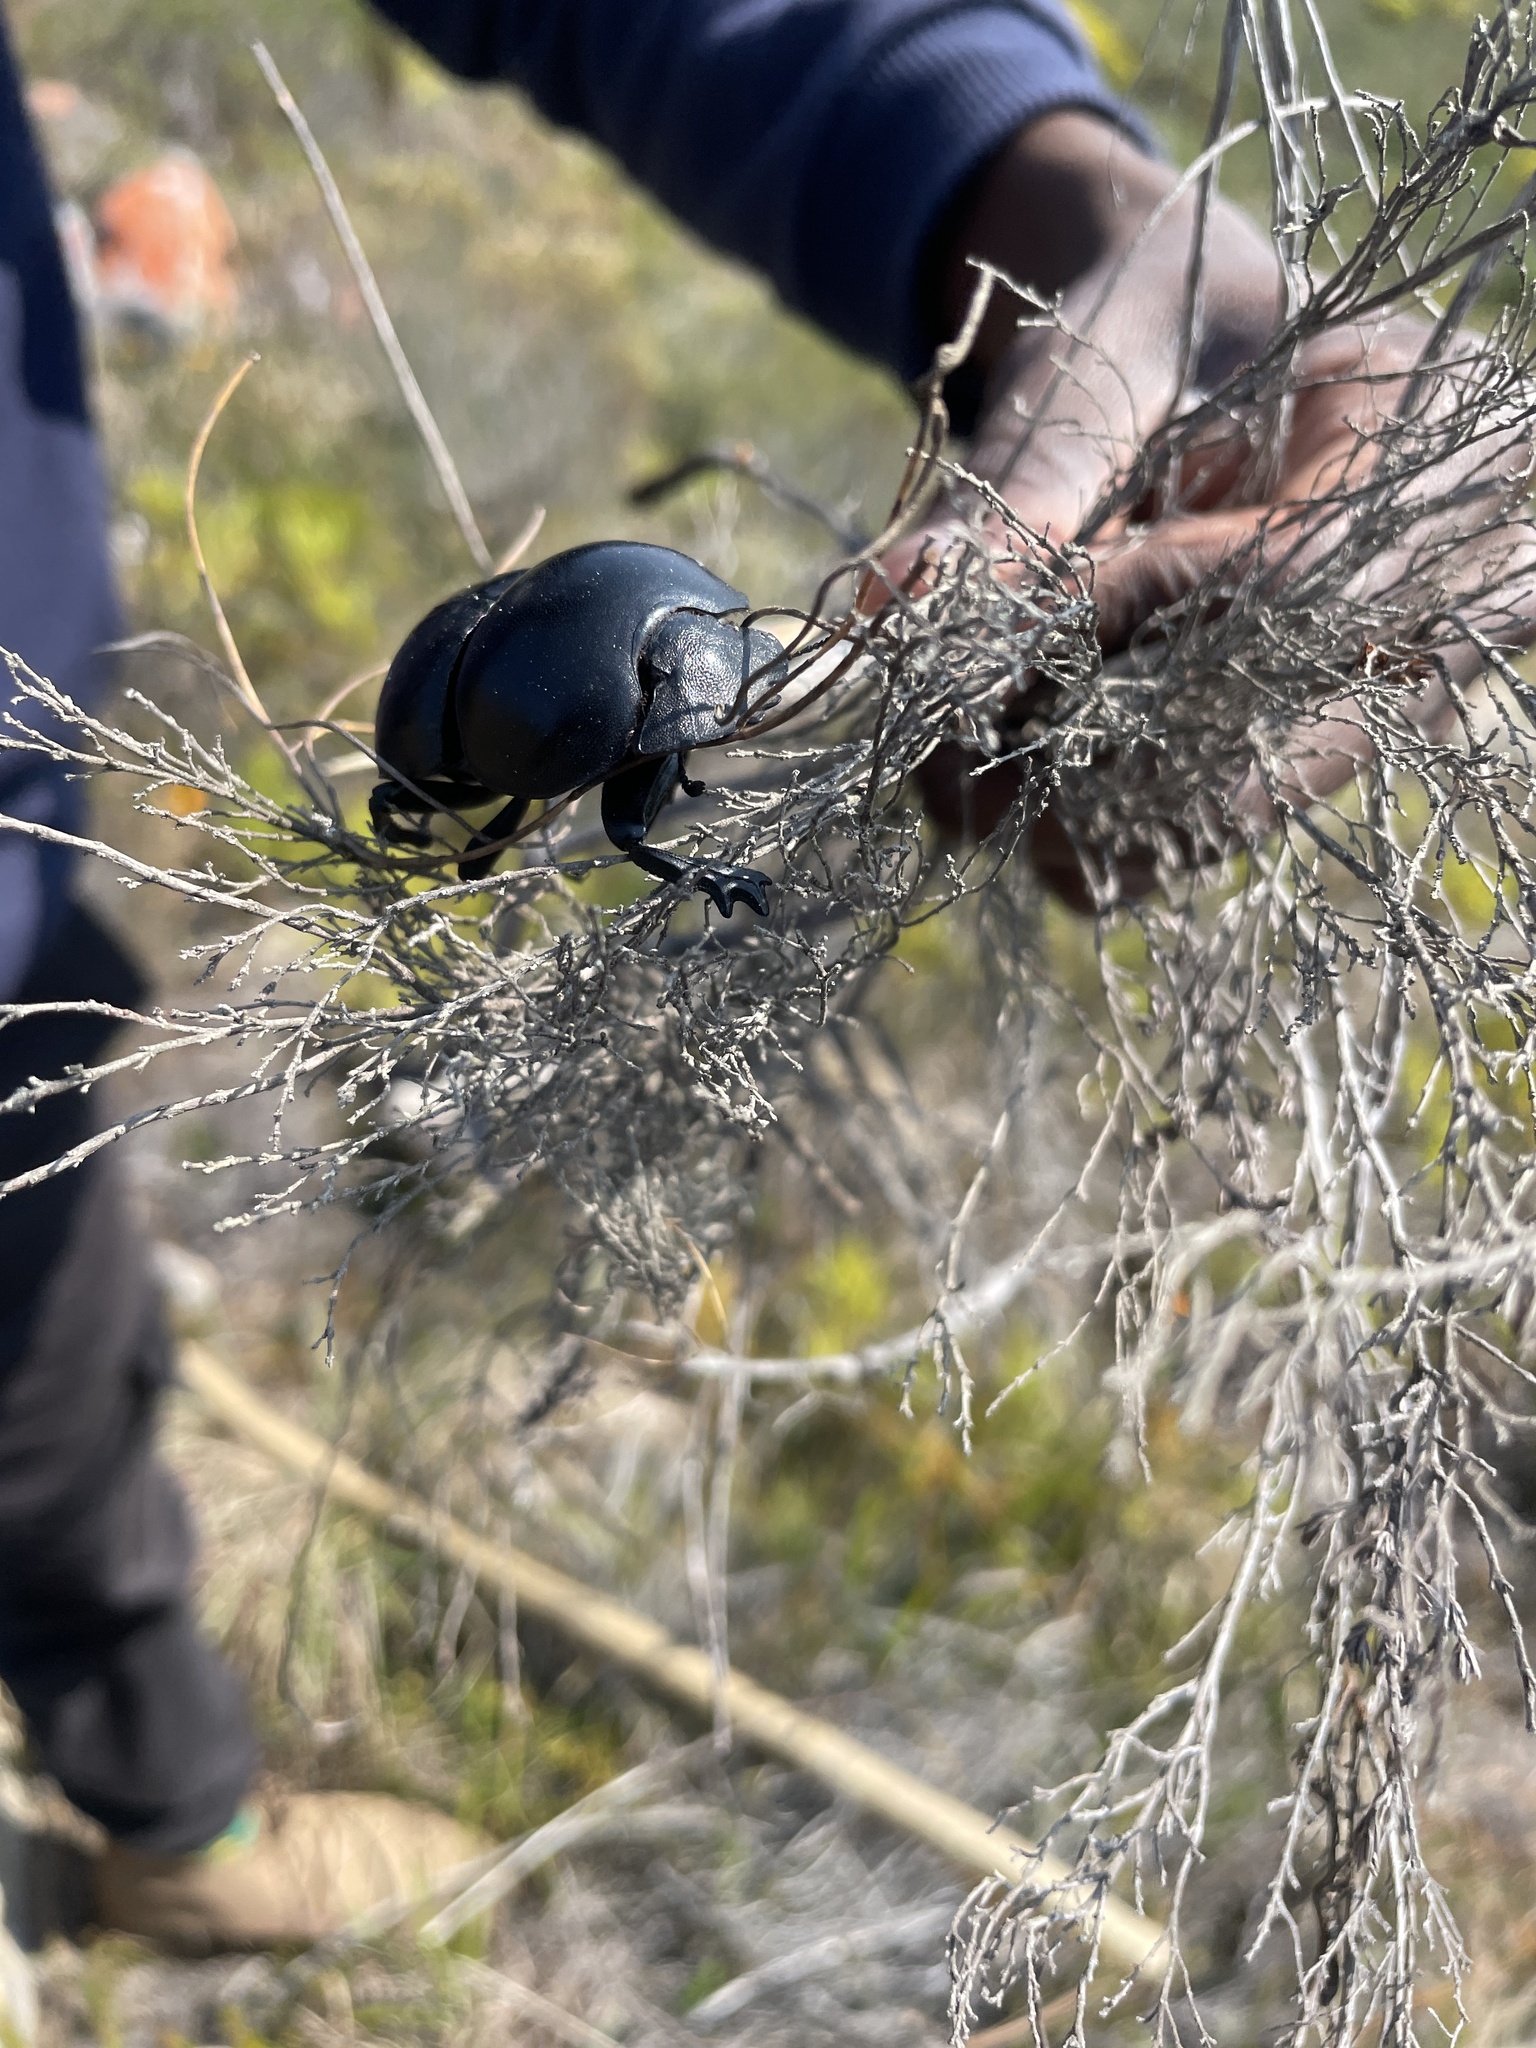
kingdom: Animalia
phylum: Arthropoda
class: Insecta
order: Coleoptera
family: Scarabaeidae
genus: Circellium
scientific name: Circellium bacchus
